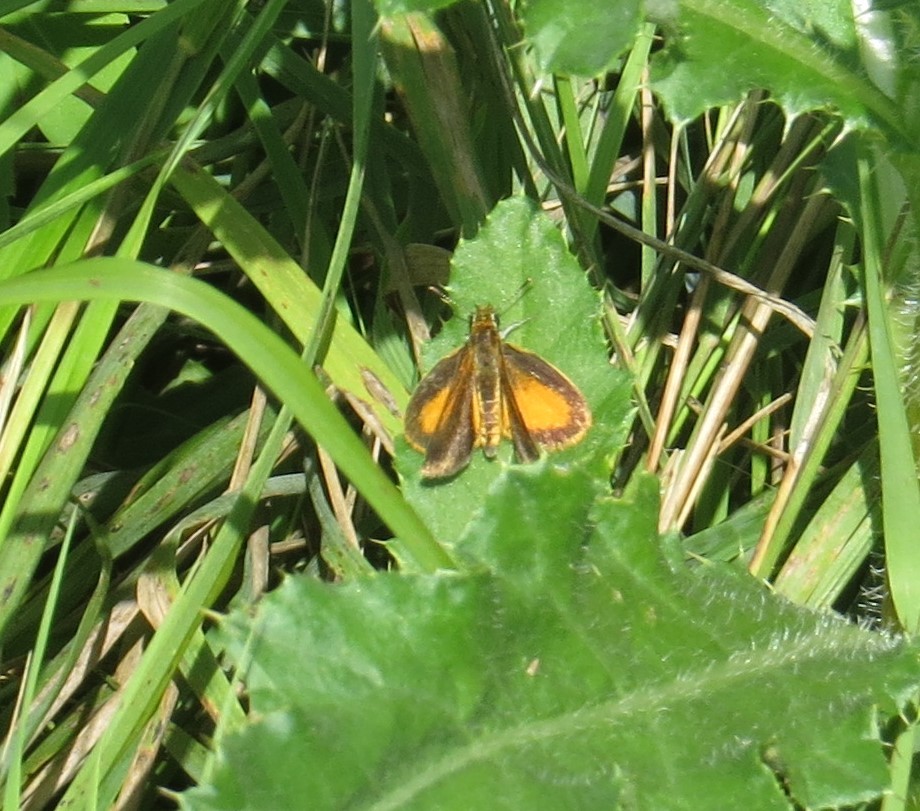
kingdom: Animalia
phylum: Arthropoda
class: Insecta
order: Lepidoptera
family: Hesperiidae
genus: Ancyloxypha
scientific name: Ancyloxypha numitor
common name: Least skipper
